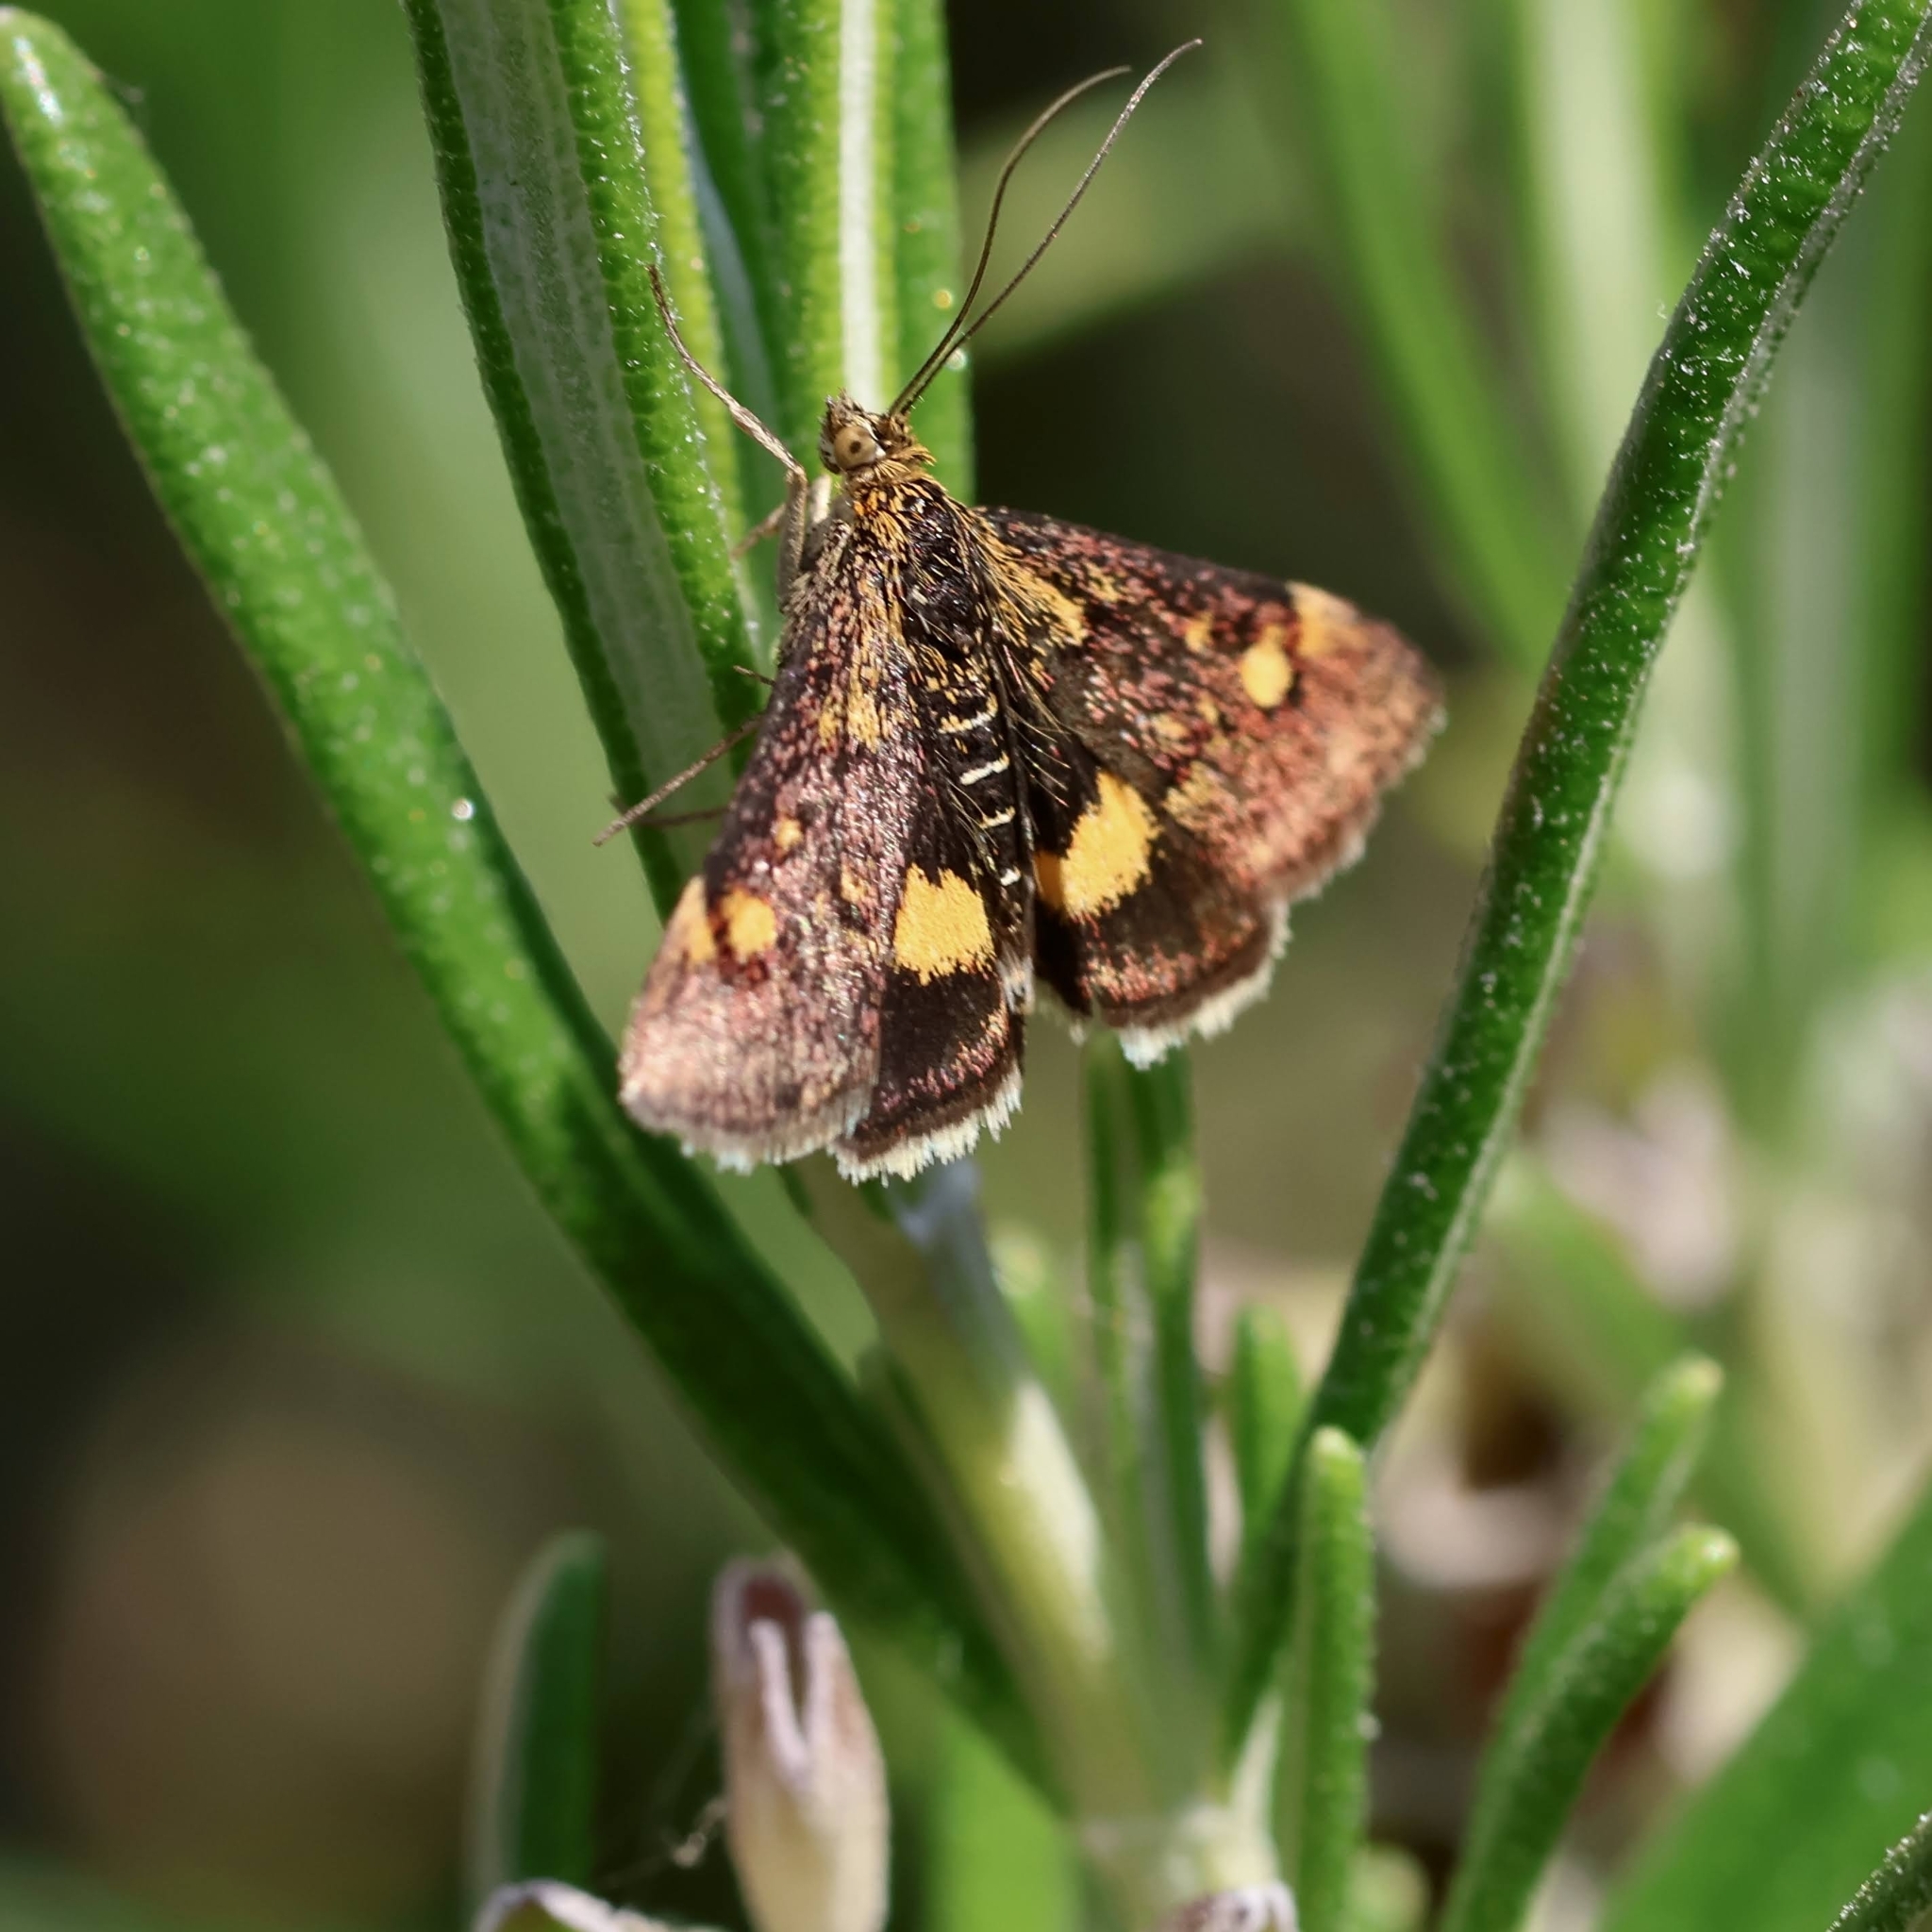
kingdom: Animalia
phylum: Arthropoda
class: Insecta
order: Lepidoptera
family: Crambidae
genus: Pyrausta
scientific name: Pyrausta aurata
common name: Small purple & gold
